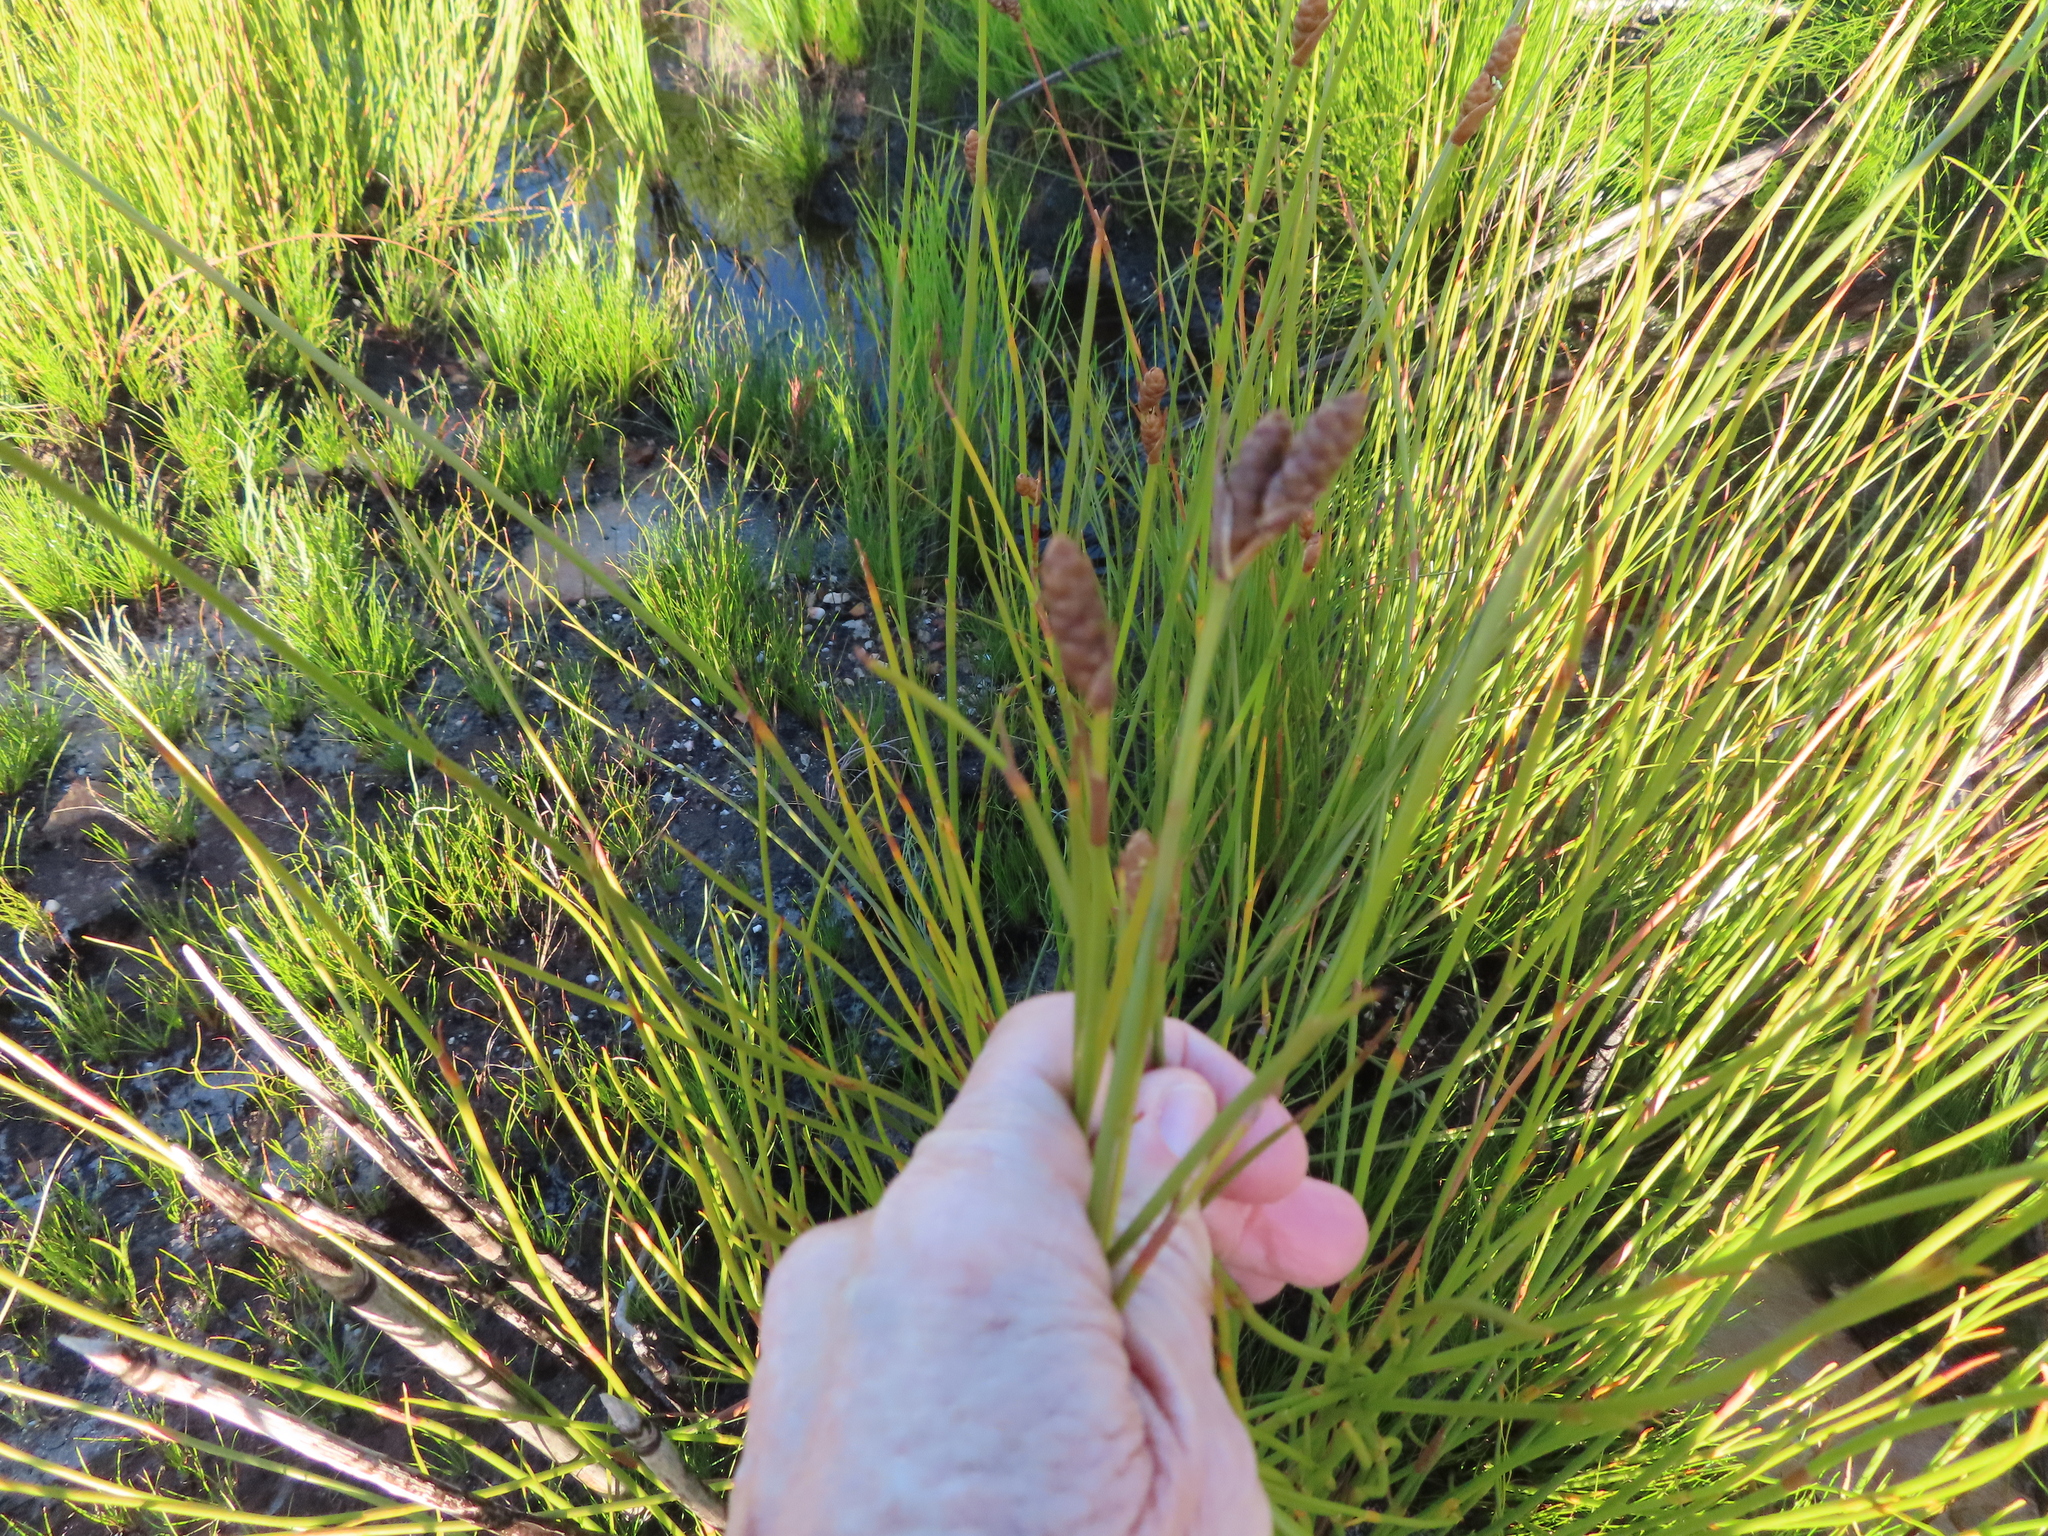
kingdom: Plantae
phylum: Tracheophyta
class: Liliopsida
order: Poales
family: Restionaceae
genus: Nevillea
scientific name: Nevillea obtusissimus
